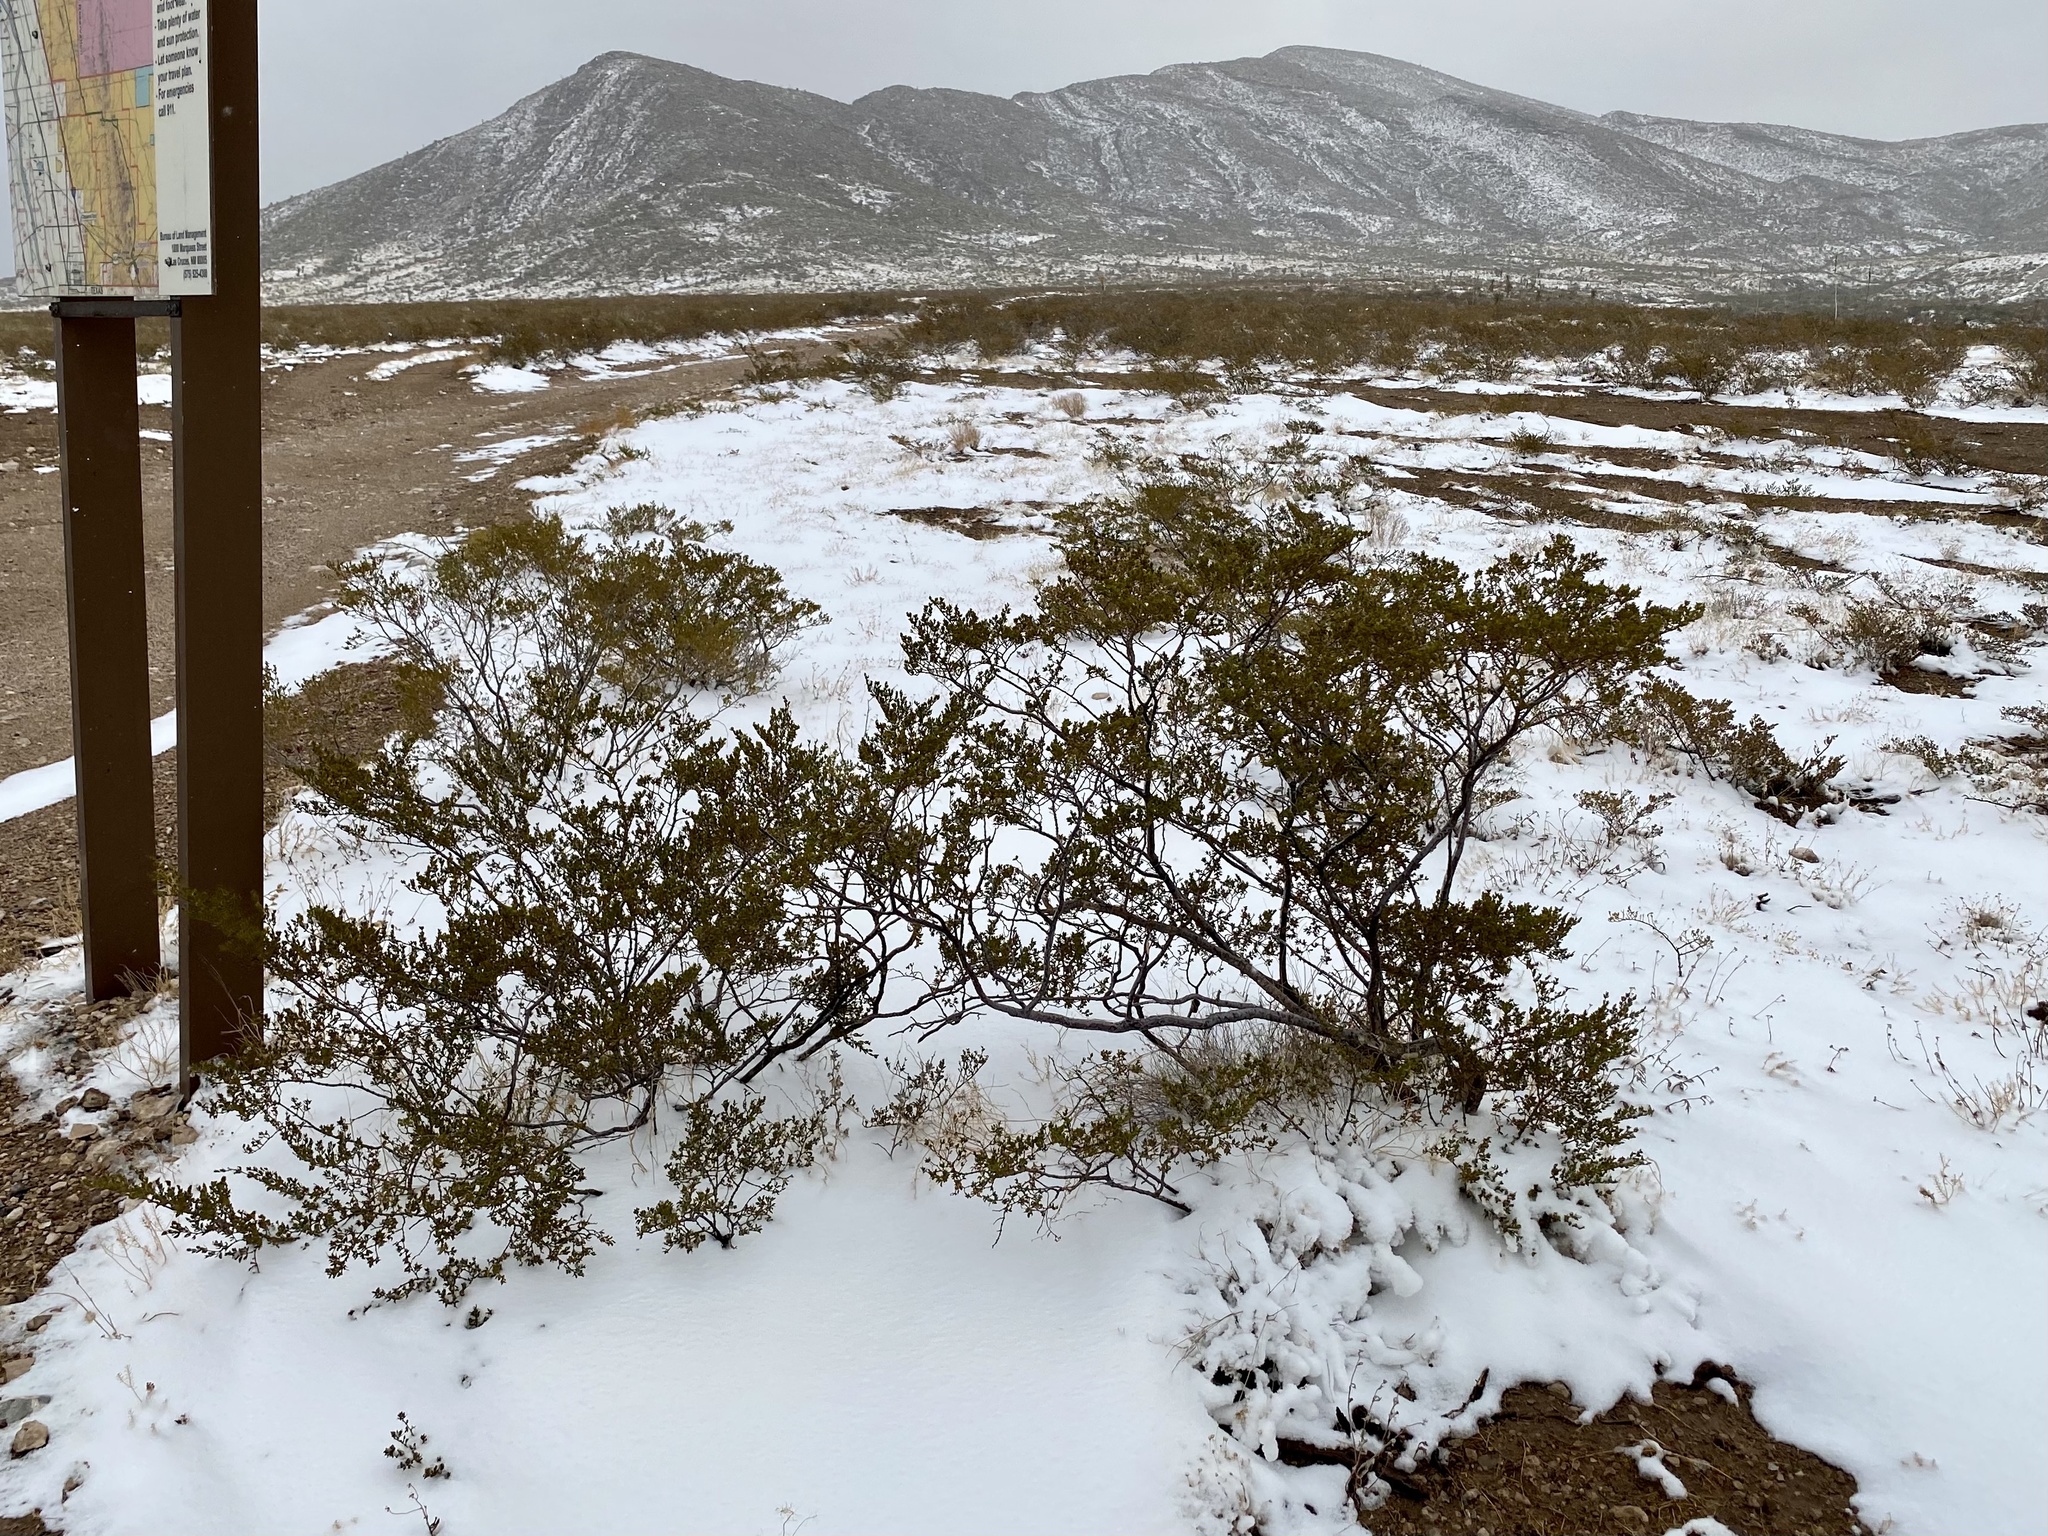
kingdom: Plantae
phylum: Tracheophyta
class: Magnoliopsida
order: Zygophyllales
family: Zygophyllaceae
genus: Larrea
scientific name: Larrea tridentata
